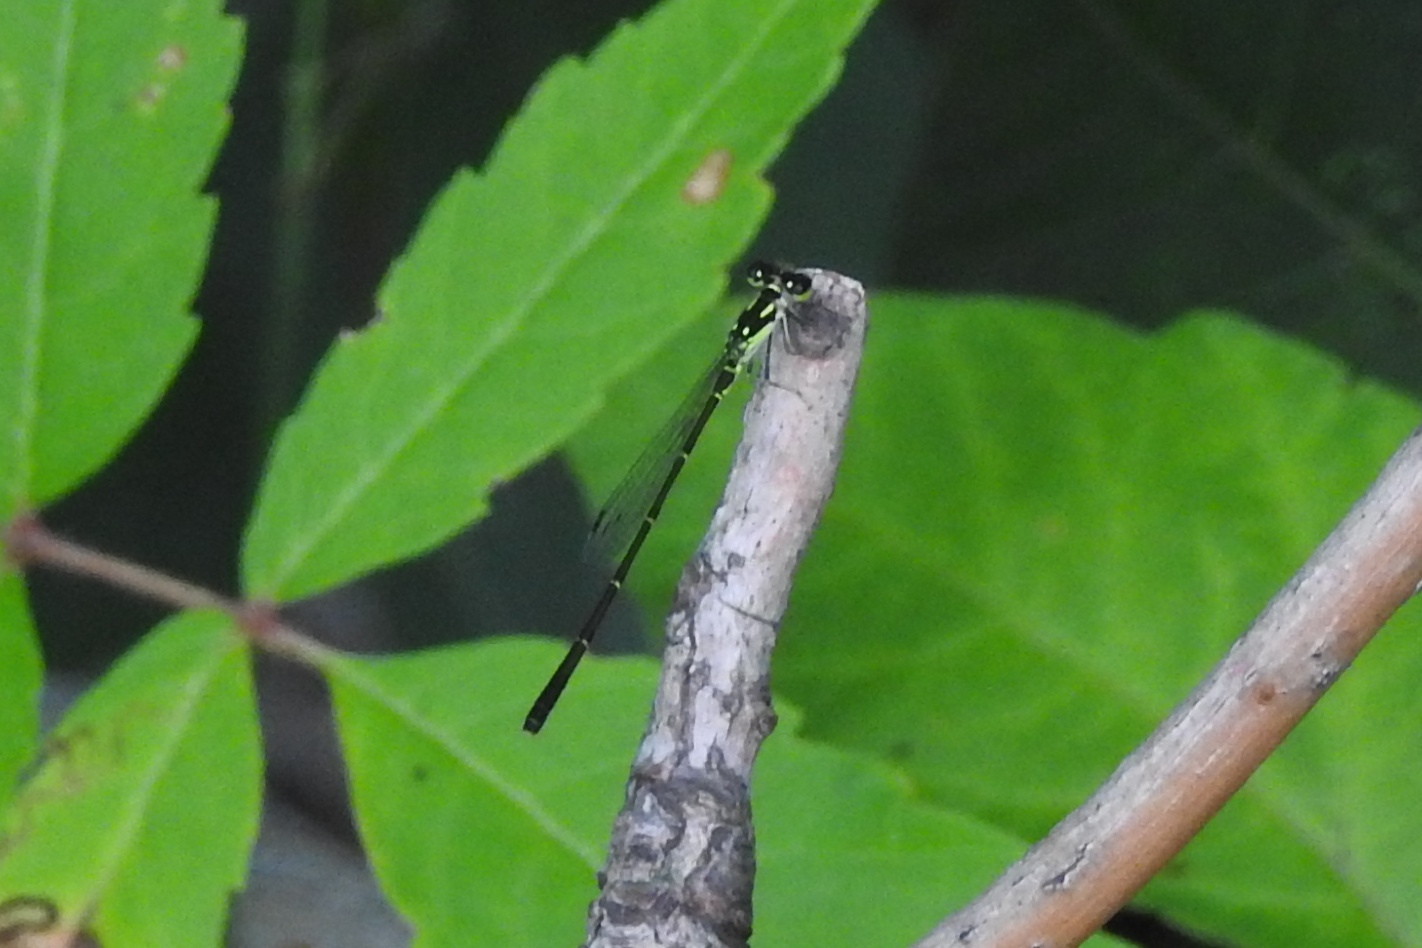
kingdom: Animalia
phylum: Arthropoda
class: Insecta
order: Odonata
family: Coenagrionidae
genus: Ischnura
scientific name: Ischnura posita
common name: Fragile forktail
